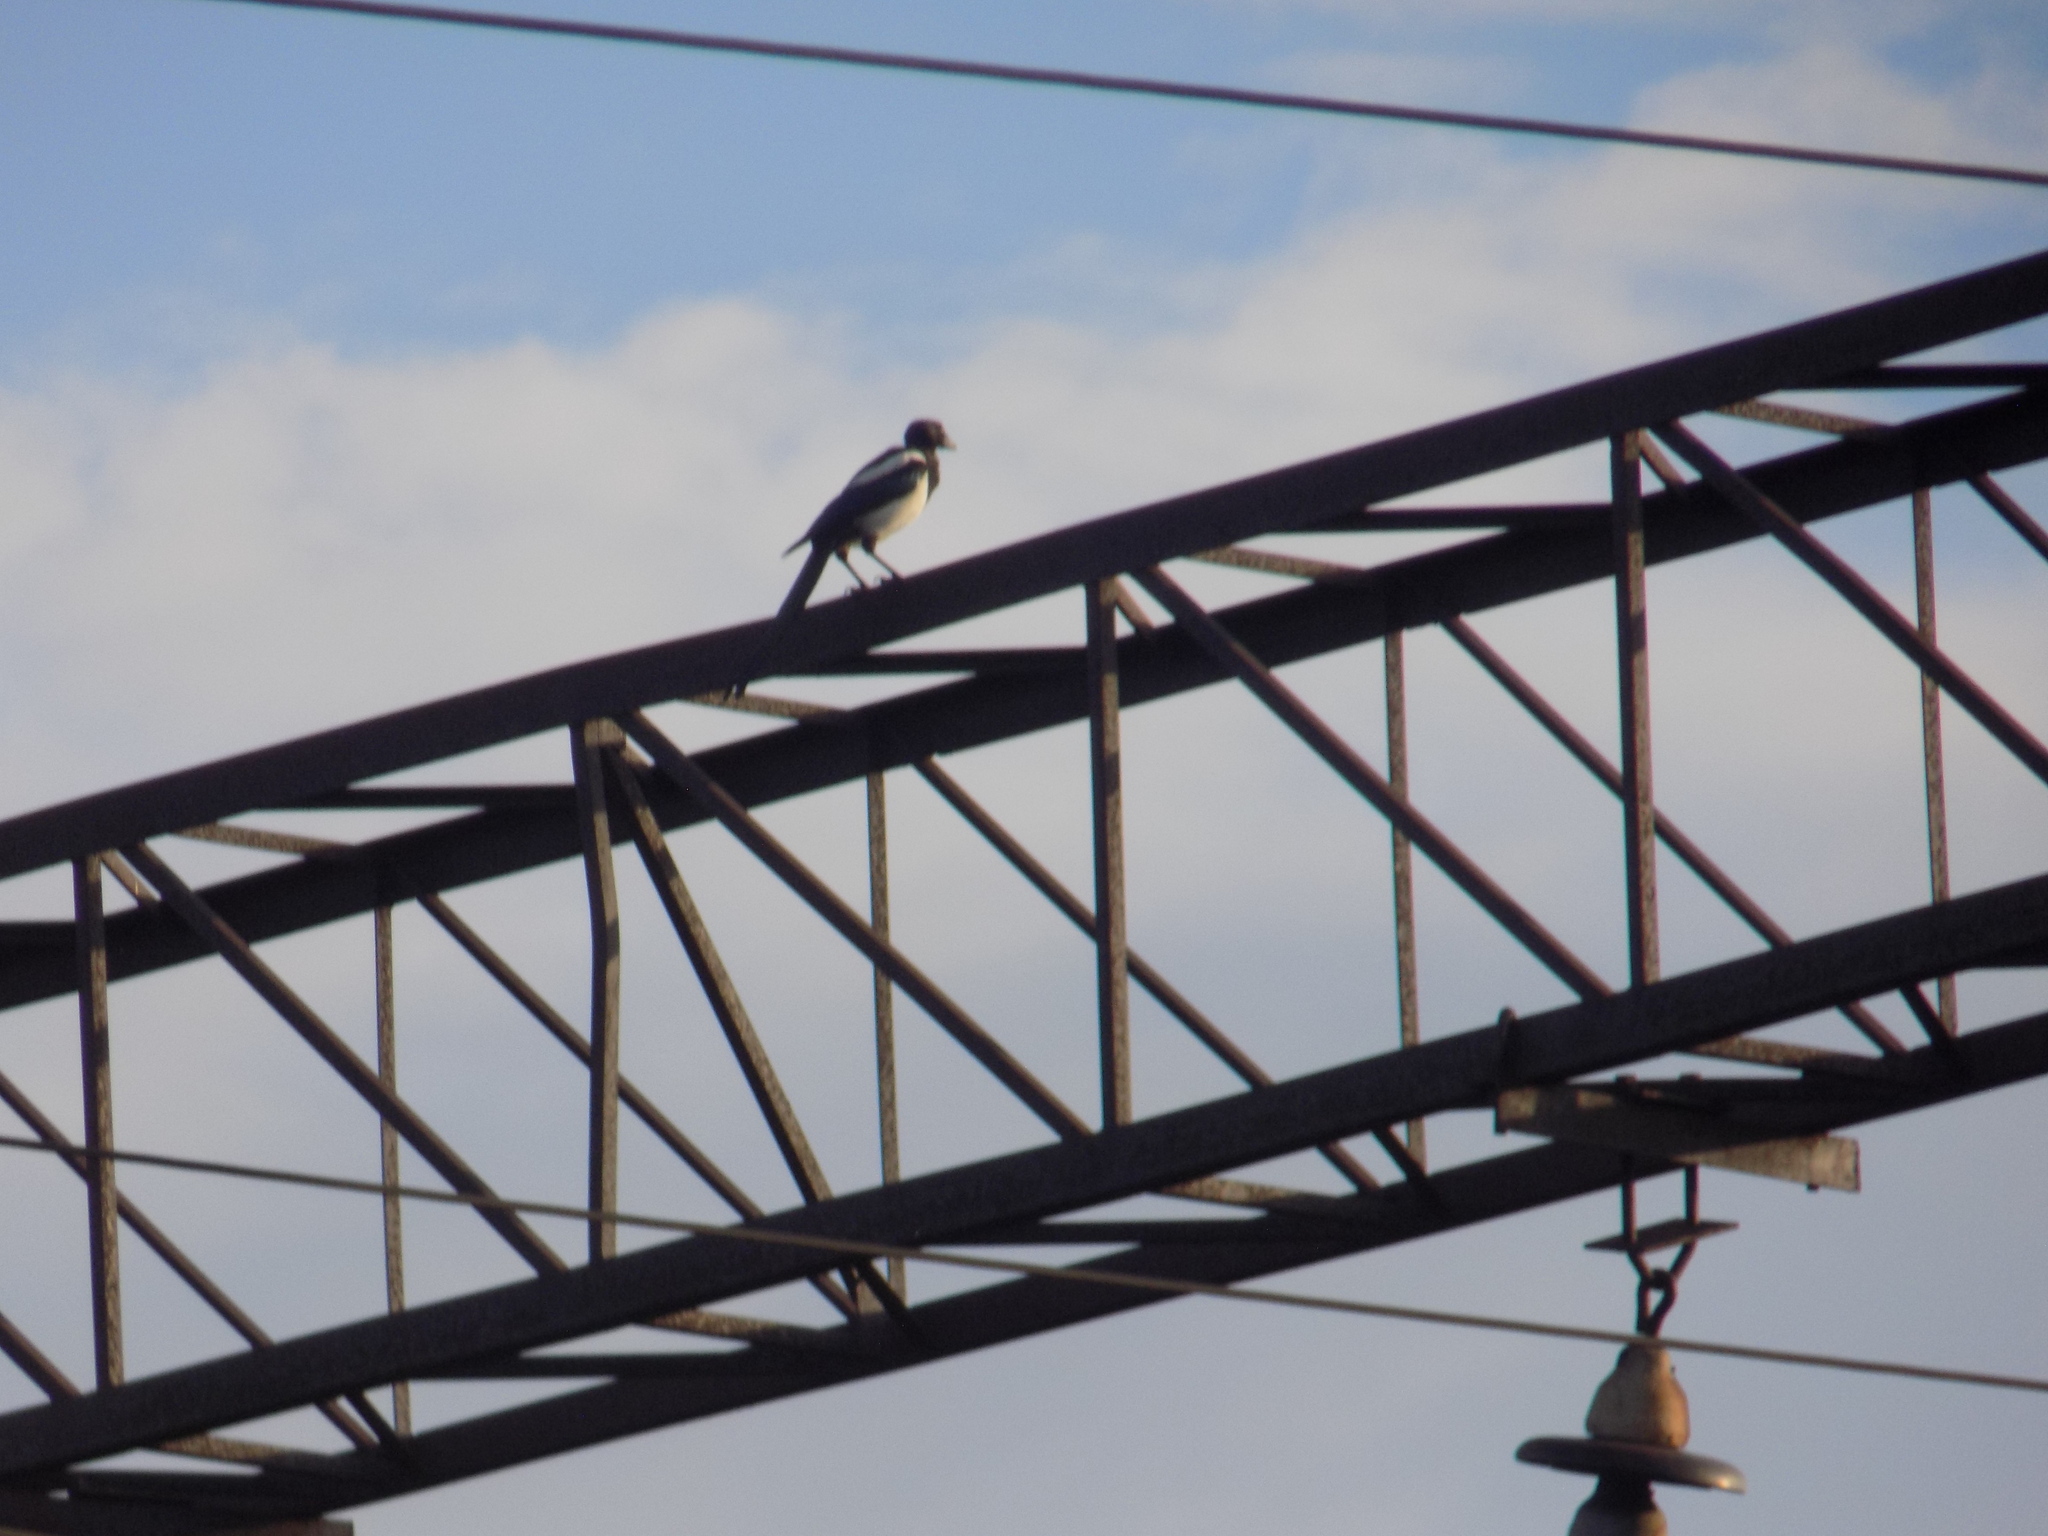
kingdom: Animalia
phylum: Chordata
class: Aves
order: Passeriformes
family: Corvidae
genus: Pica
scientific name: Pica pica
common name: Eurasian magpie
